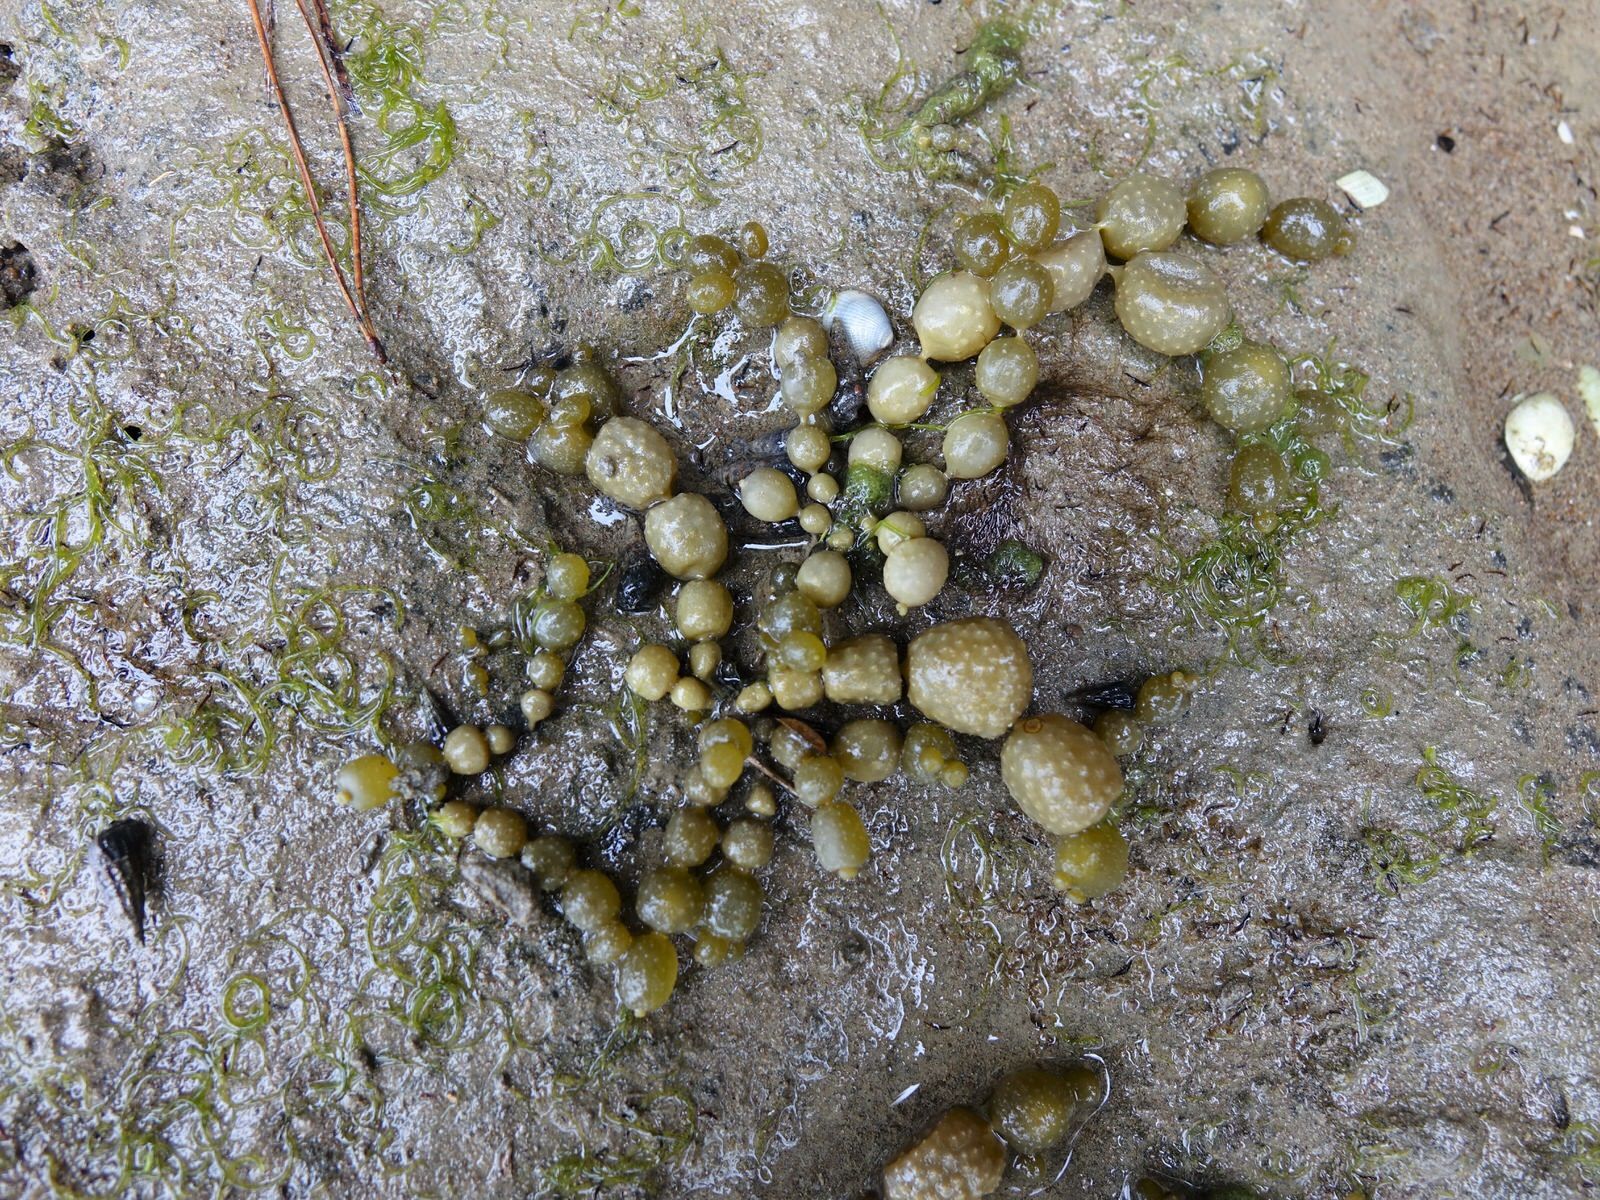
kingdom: Chromista
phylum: Ochrophyta
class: Phaeophyceae
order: Fucales
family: Hormosiraceae
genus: Hormosira
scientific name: Hormosira banksii
